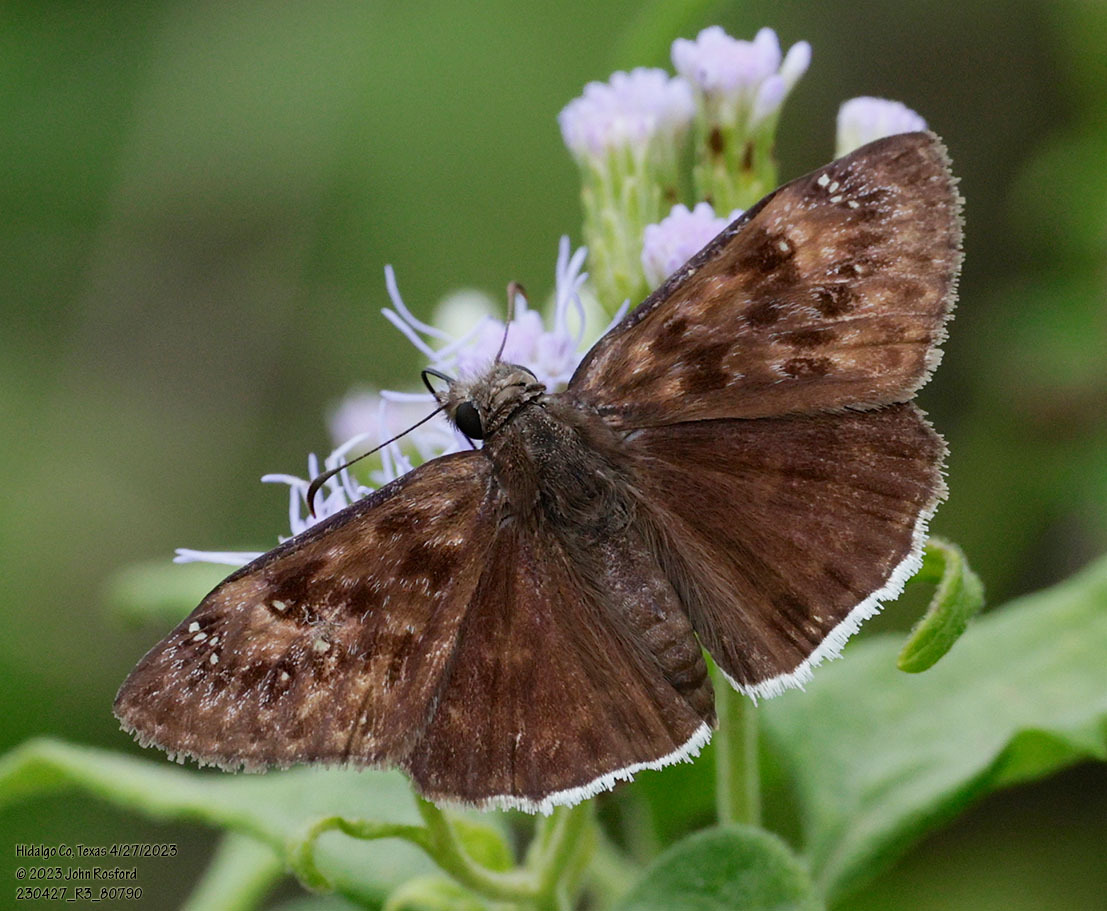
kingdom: Animalia
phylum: Arthropoda
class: Insecta
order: Lepidoptera
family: Hesperiidae
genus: Erynnis
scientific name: Erynnis tristis
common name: Mournful duskywing
